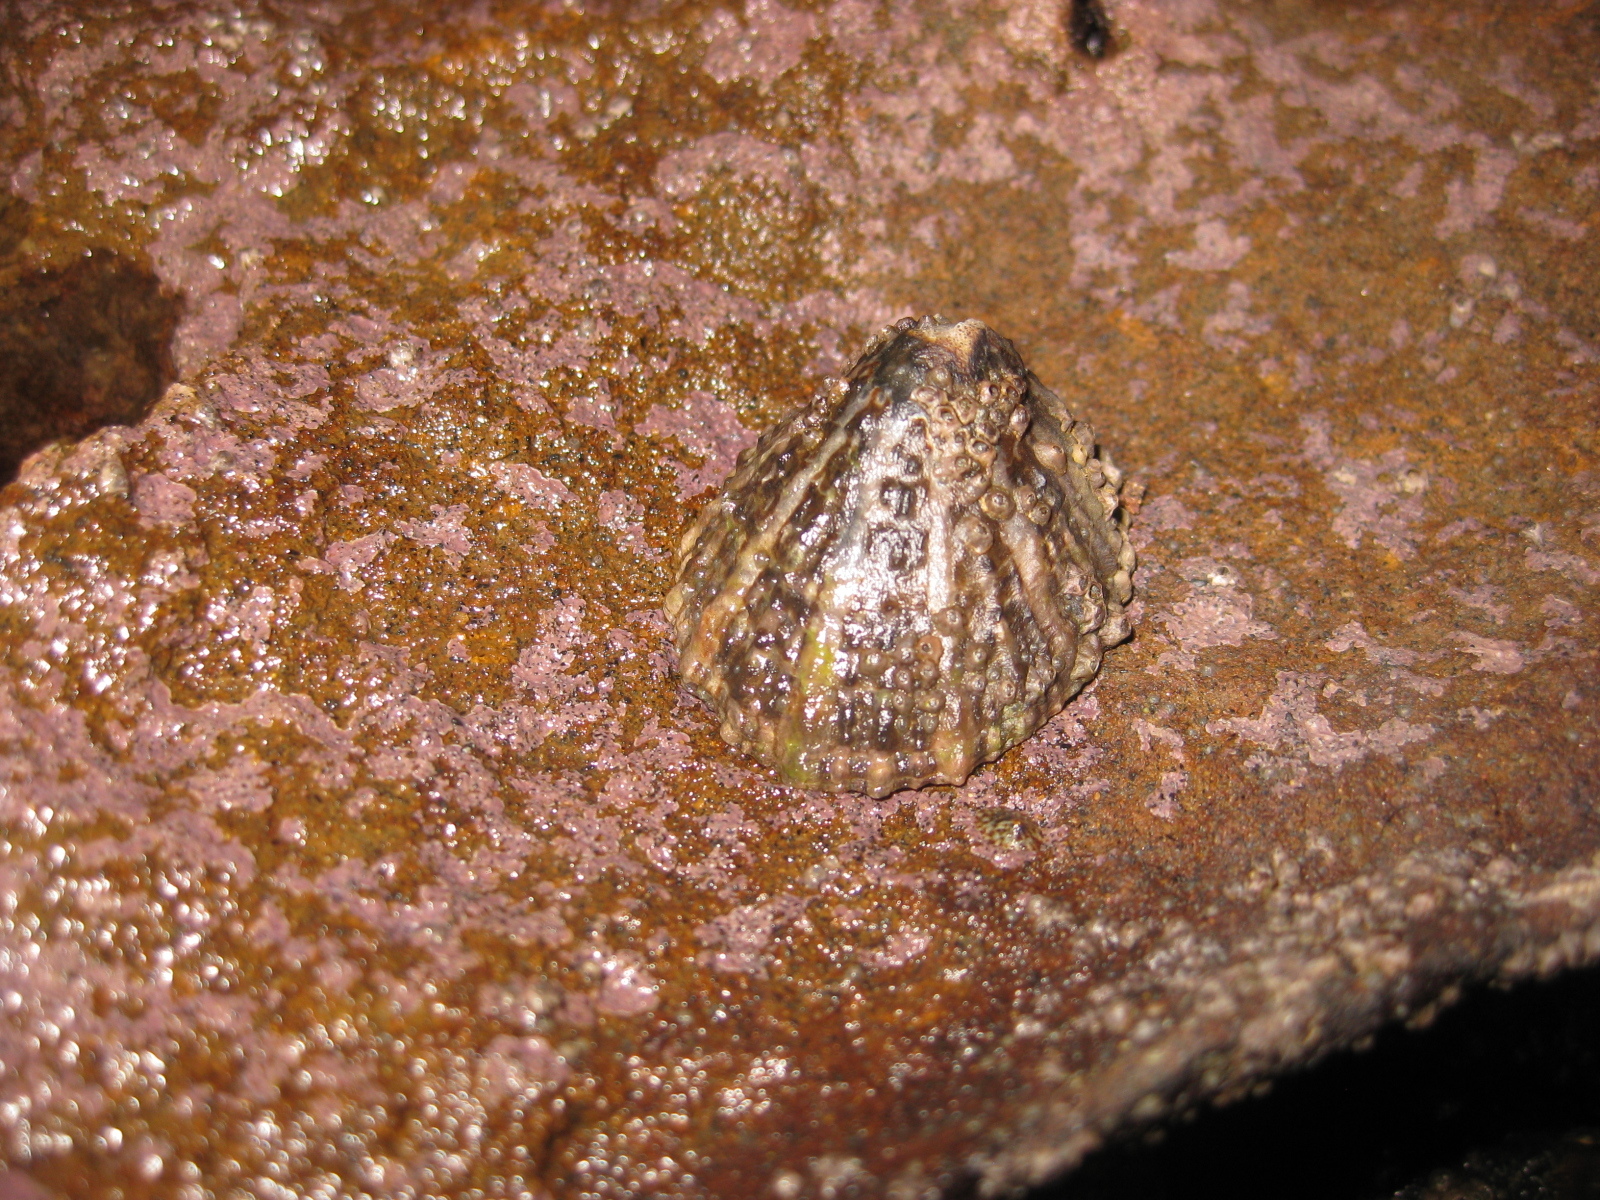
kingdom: Animalia
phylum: Mollusca
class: Gastropoda
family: Nacellidae
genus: Cellana
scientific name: Cellana ornata
